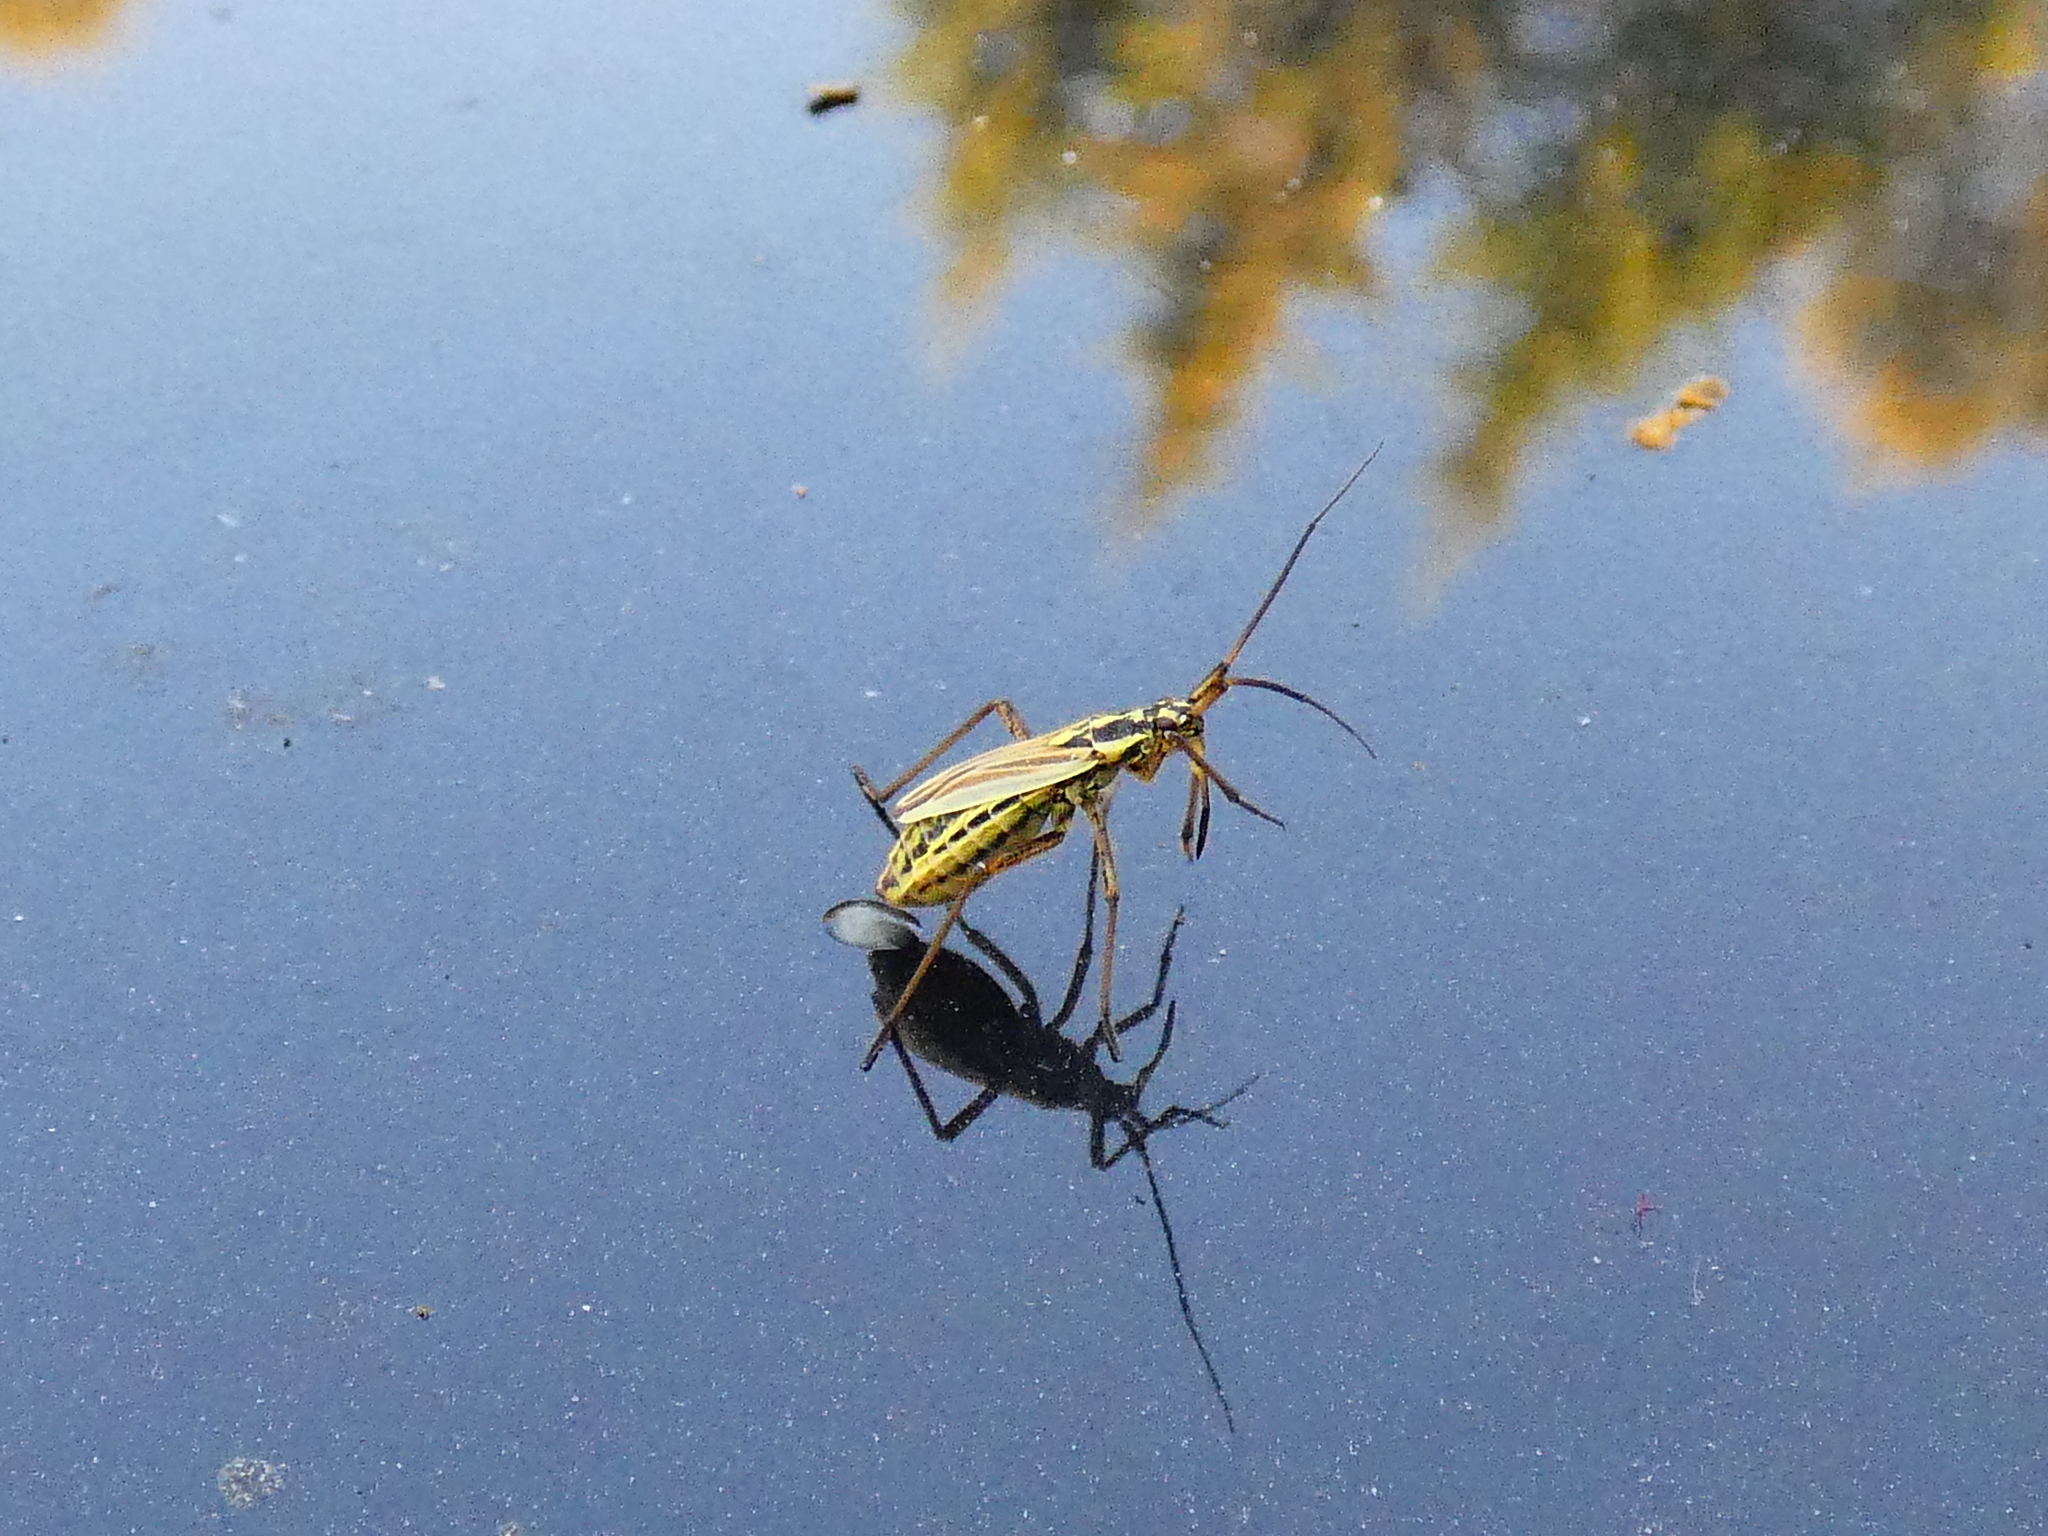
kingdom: Animalia
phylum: Arthropoda
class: Insecta
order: Hemiptera
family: Miridae
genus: Leptopterna
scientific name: Leptopterna dolabrata
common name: Meadow plant bug
